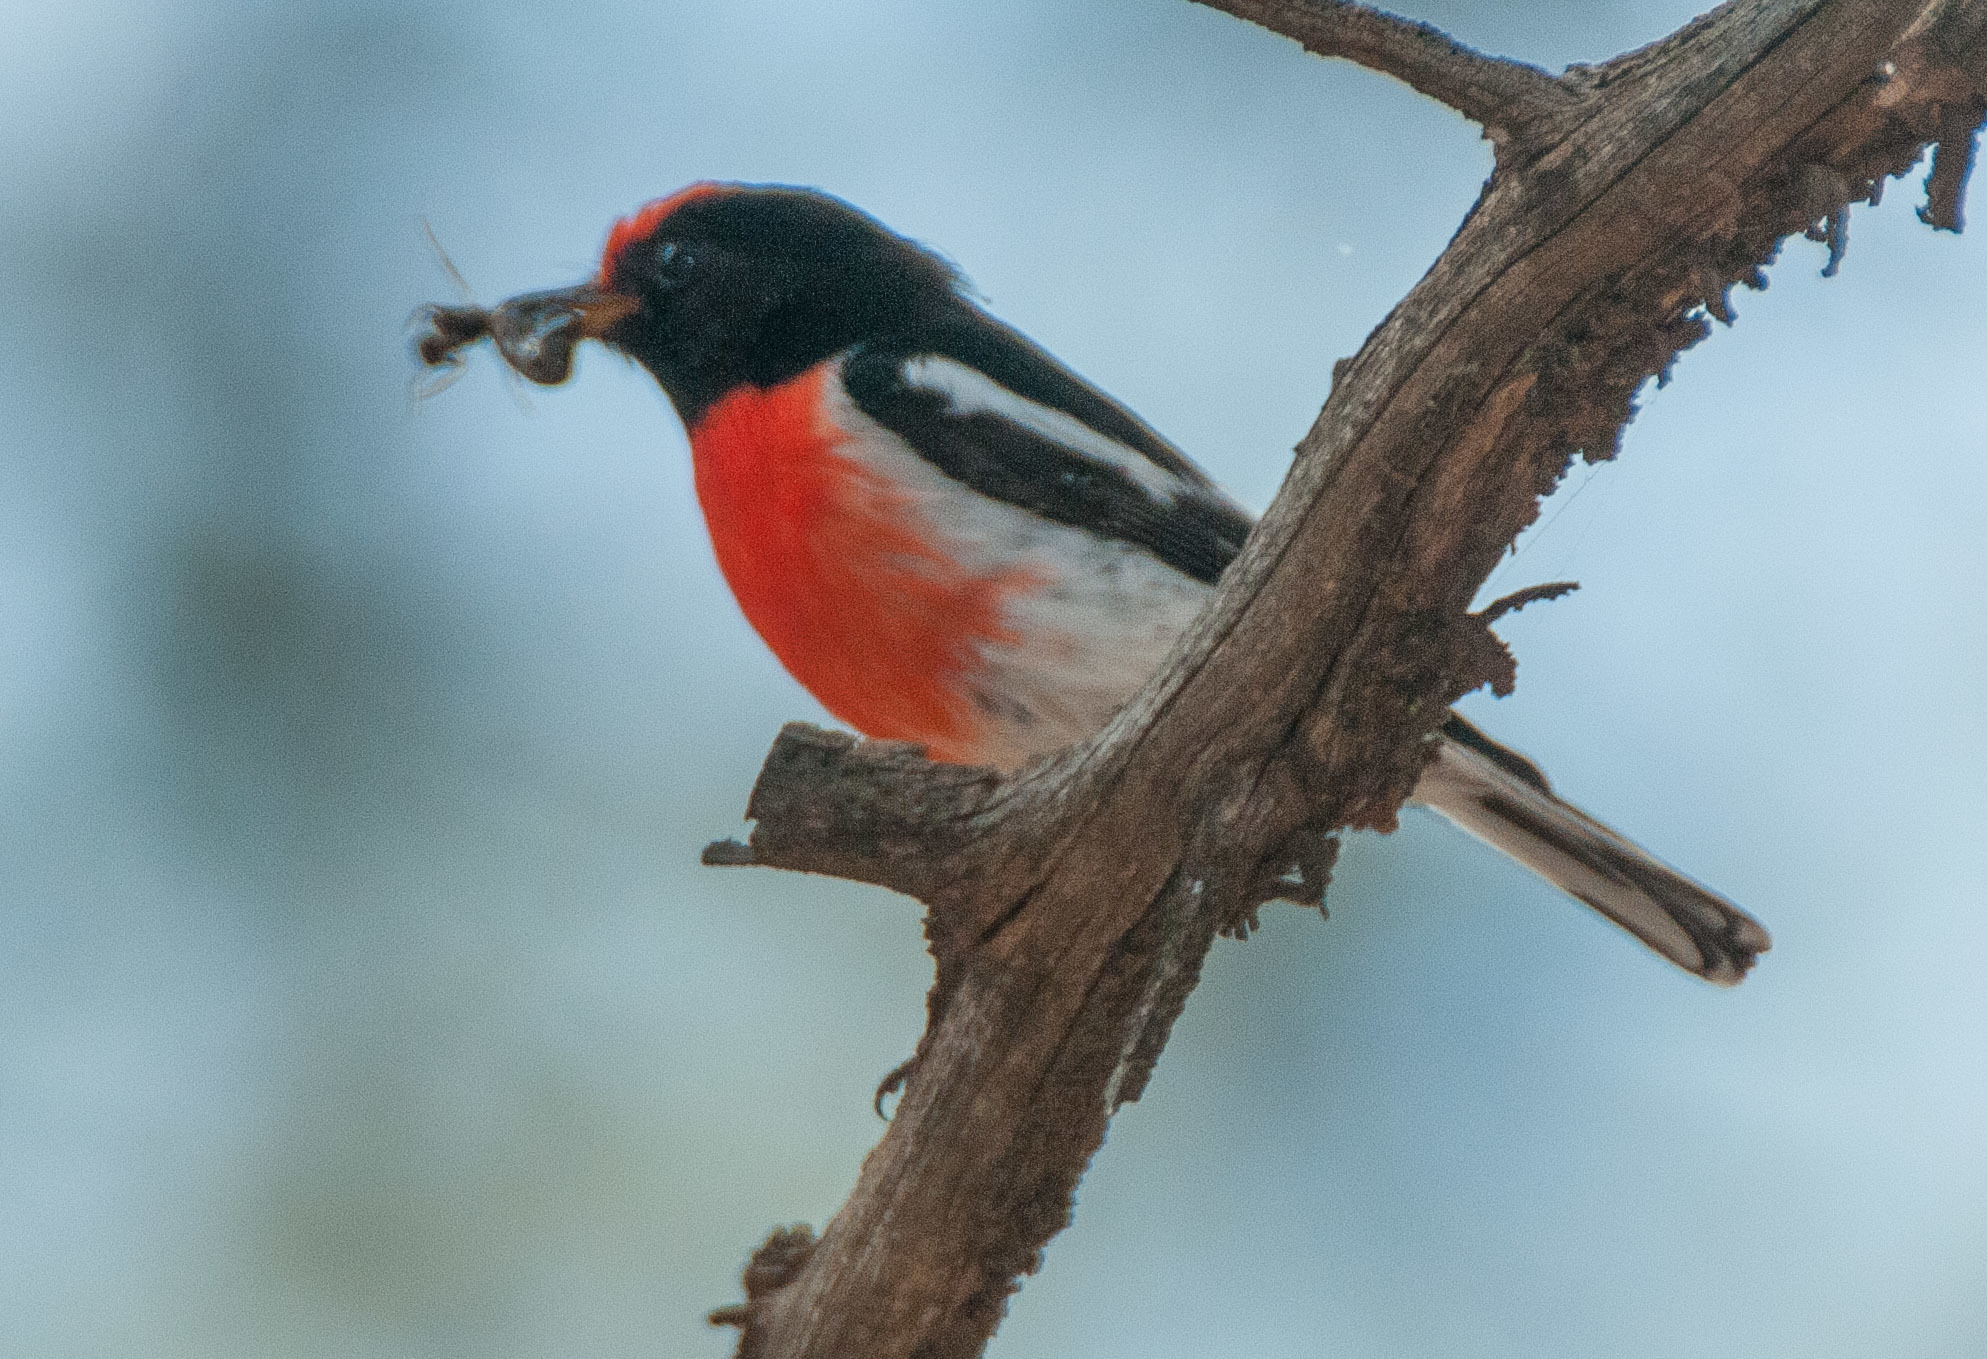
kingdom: Animalia
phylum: Chordata
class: Aves
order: Passeriformes
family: Petroicidae
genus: Petroica
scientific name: Petroica goodenovii
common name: Red-capped robin
